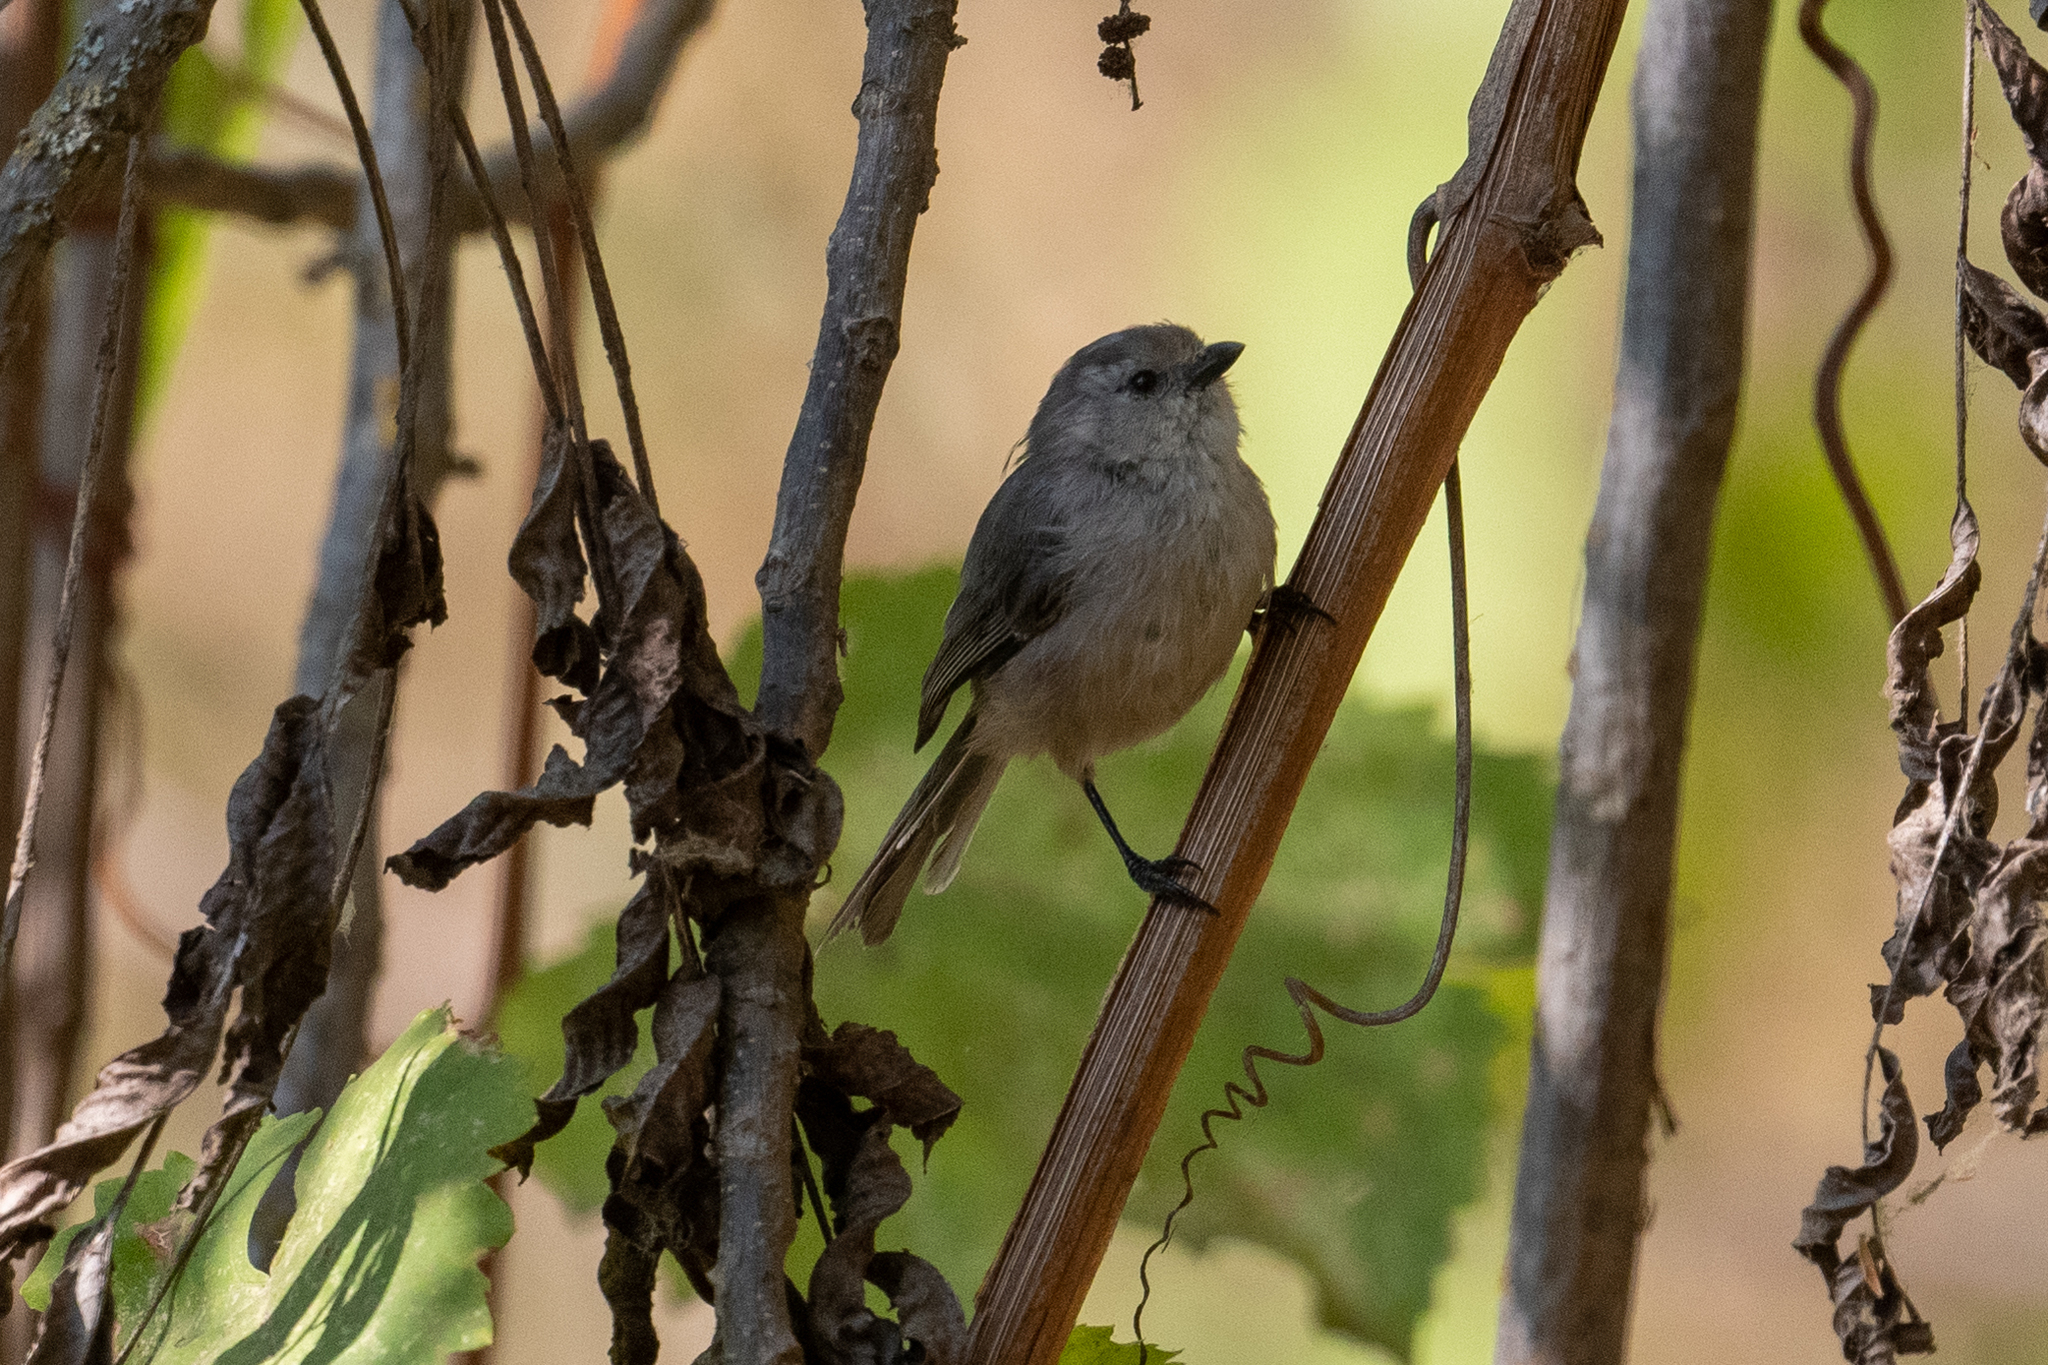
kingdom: Animalia
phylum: Chordata
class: Aves
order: Passeriformes
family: Aegithalidae
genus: Psaltriparus
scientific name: Psaltriparus minimus
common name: American bushtit
